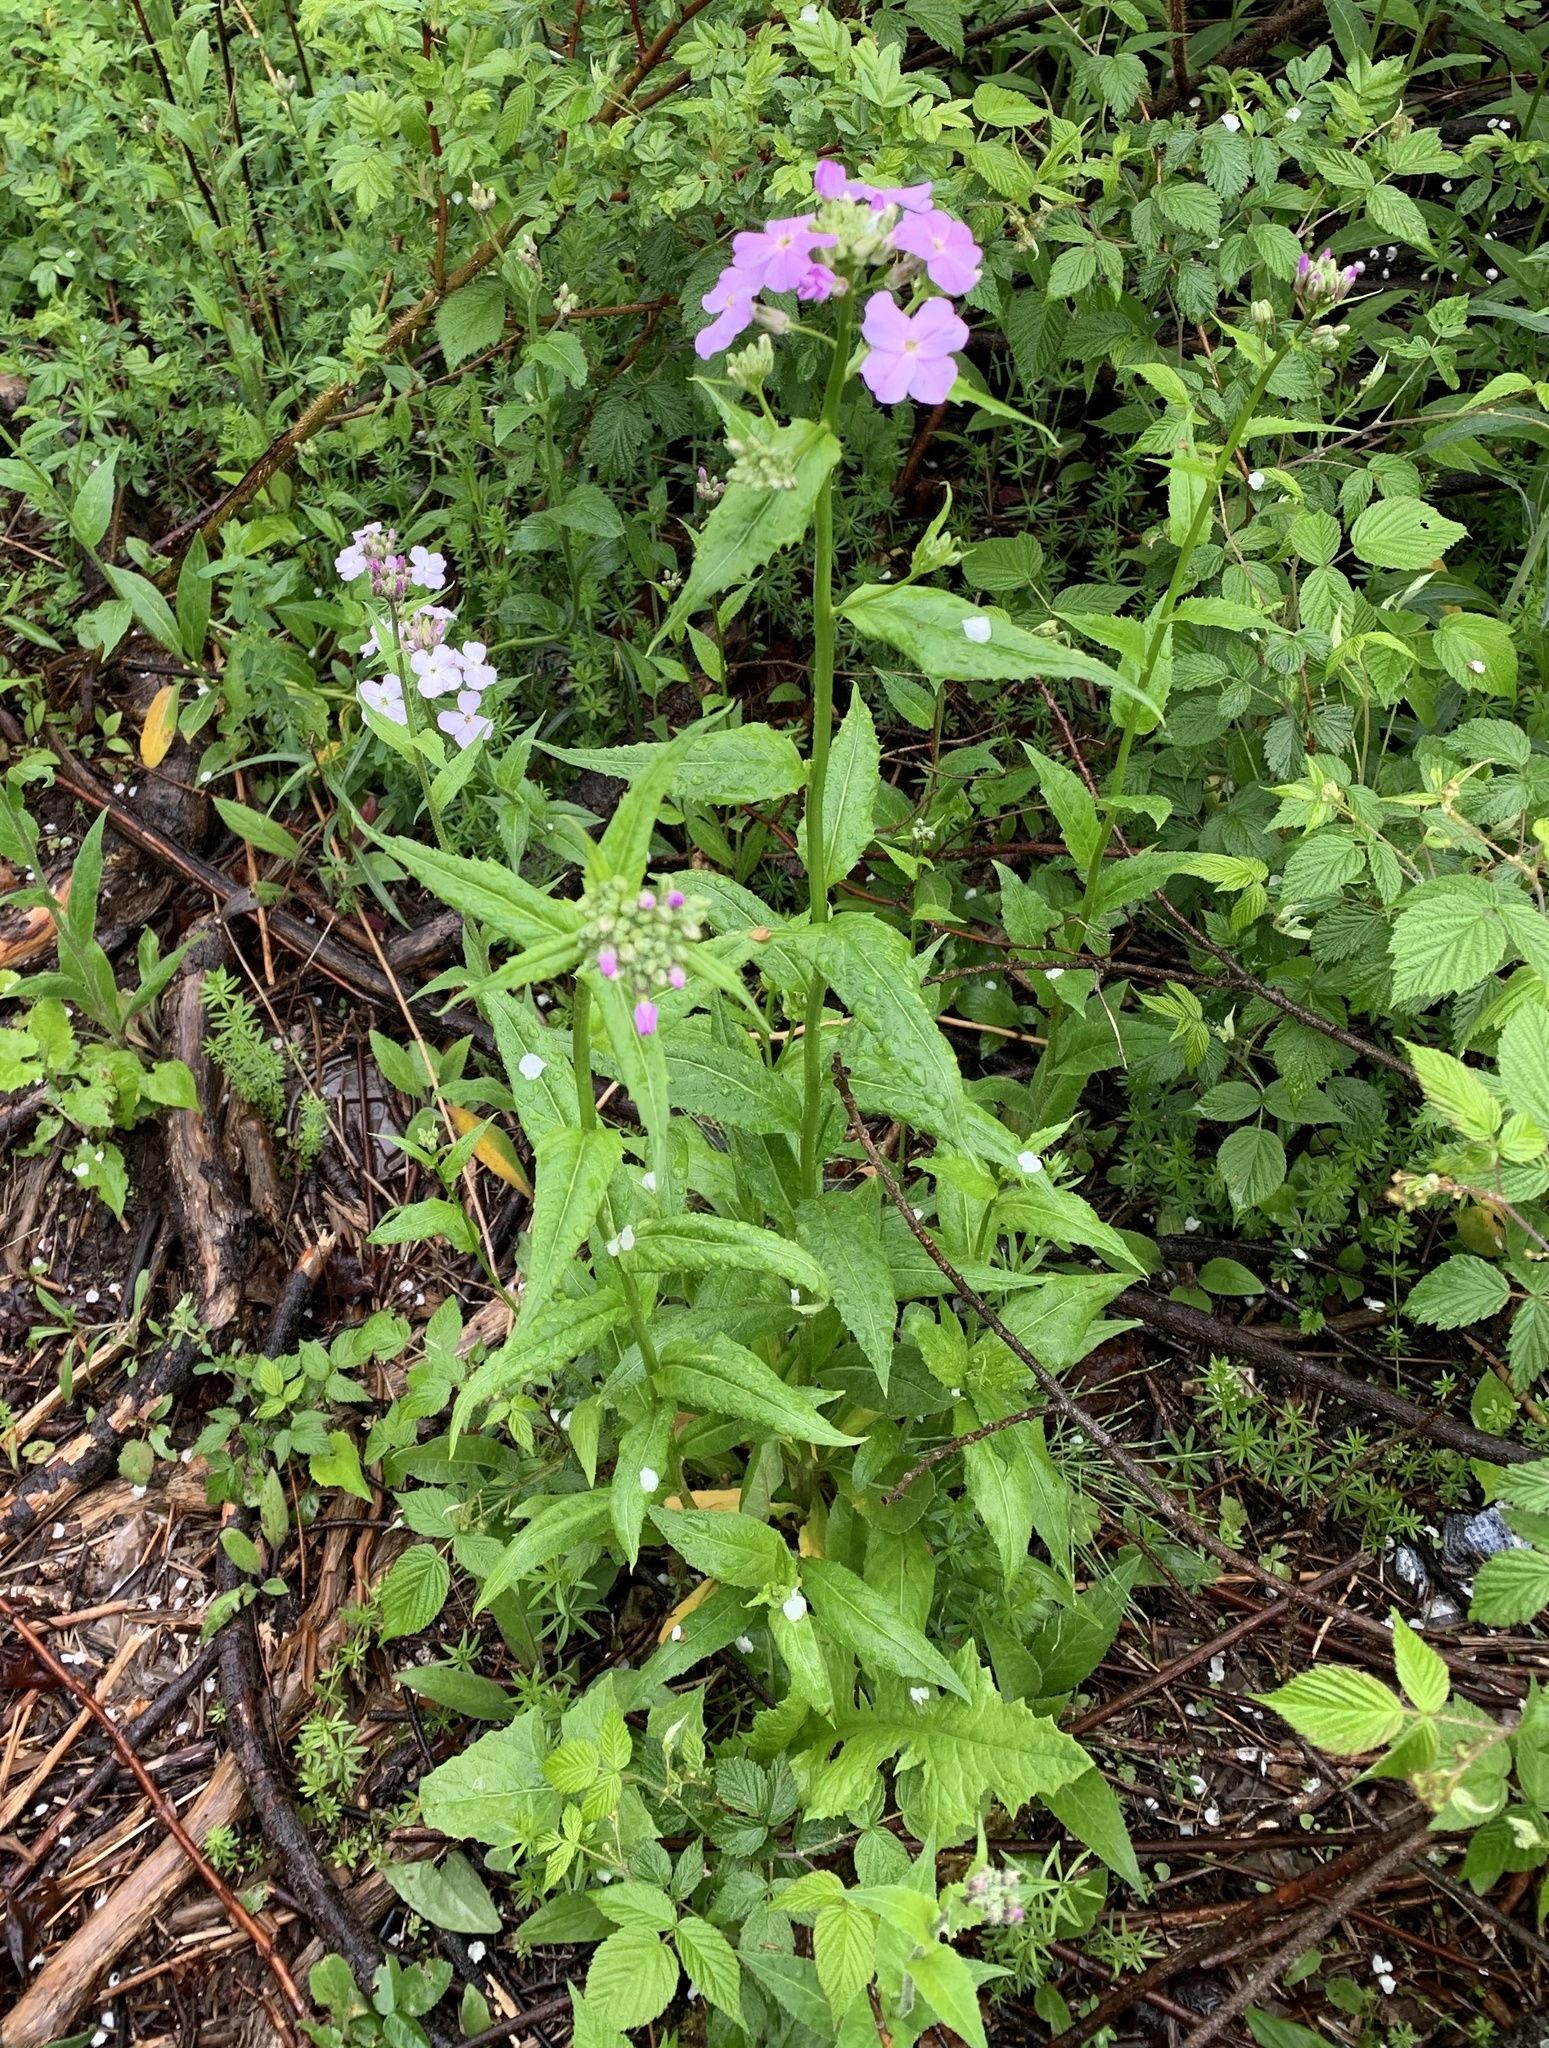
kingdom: Plantae
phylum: Tracheophyta
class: Magnoliopsida
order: Brassicales
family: Brassicaceae
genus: Hesperis
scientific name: Hesperis matronalis
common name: Dame's-violet
